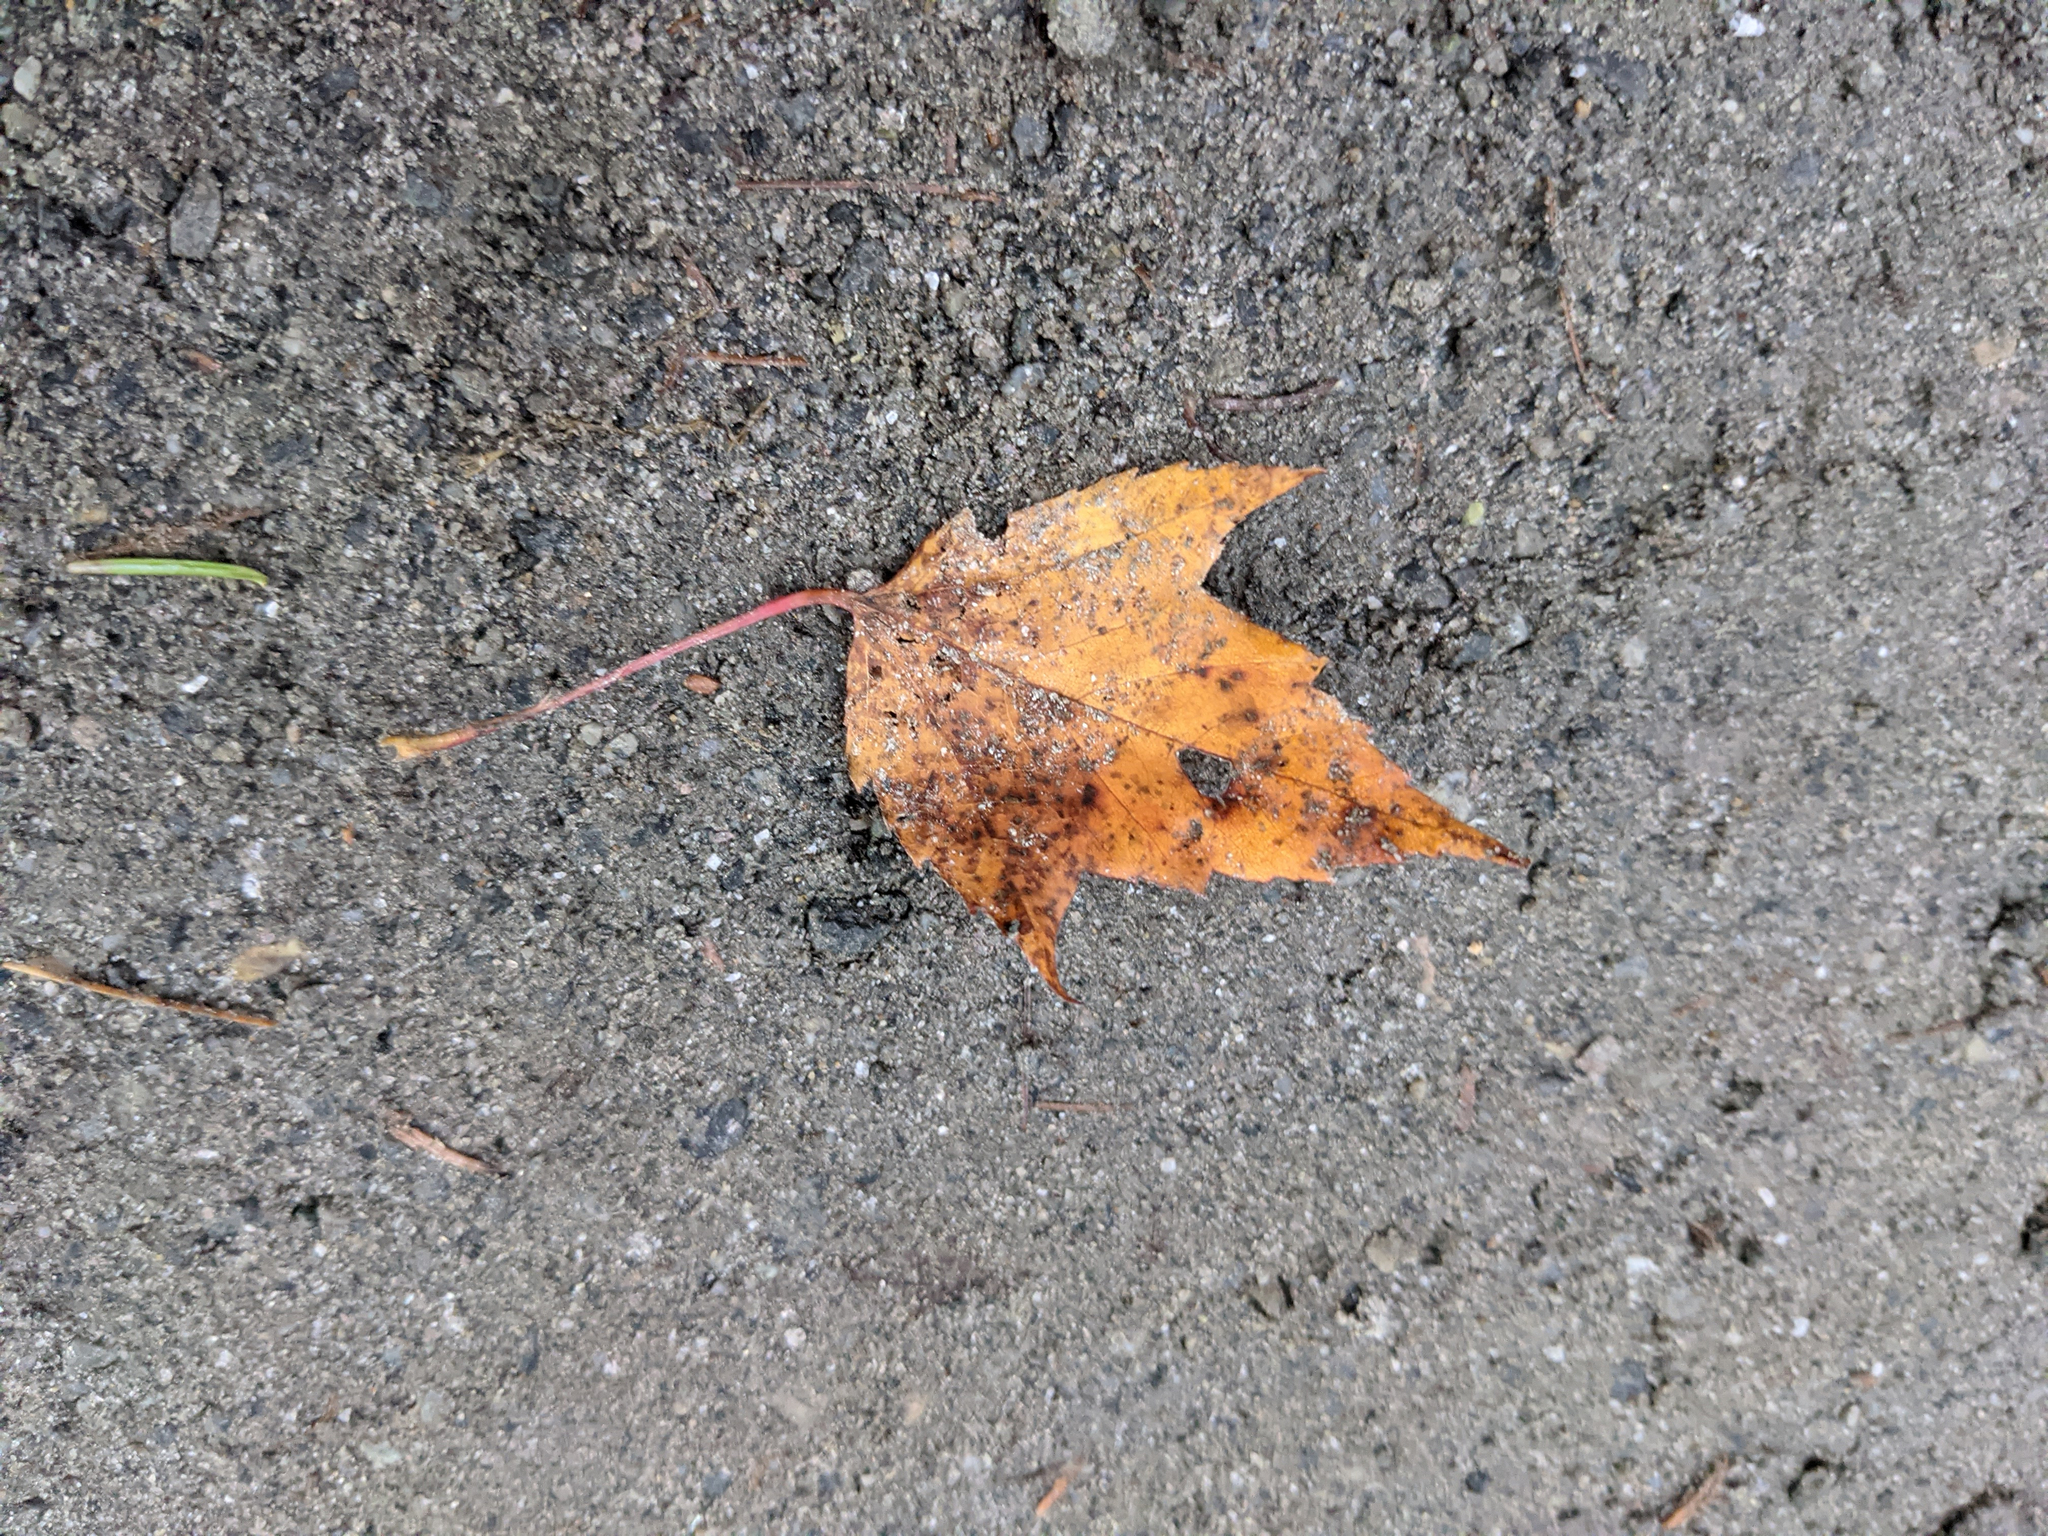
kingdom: Plantae
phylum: Tracheophyta
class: Magnoliopsida
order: Sapindales
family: Sapindaceae
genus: Acer
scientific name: Acer rubrum
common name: Red maple
